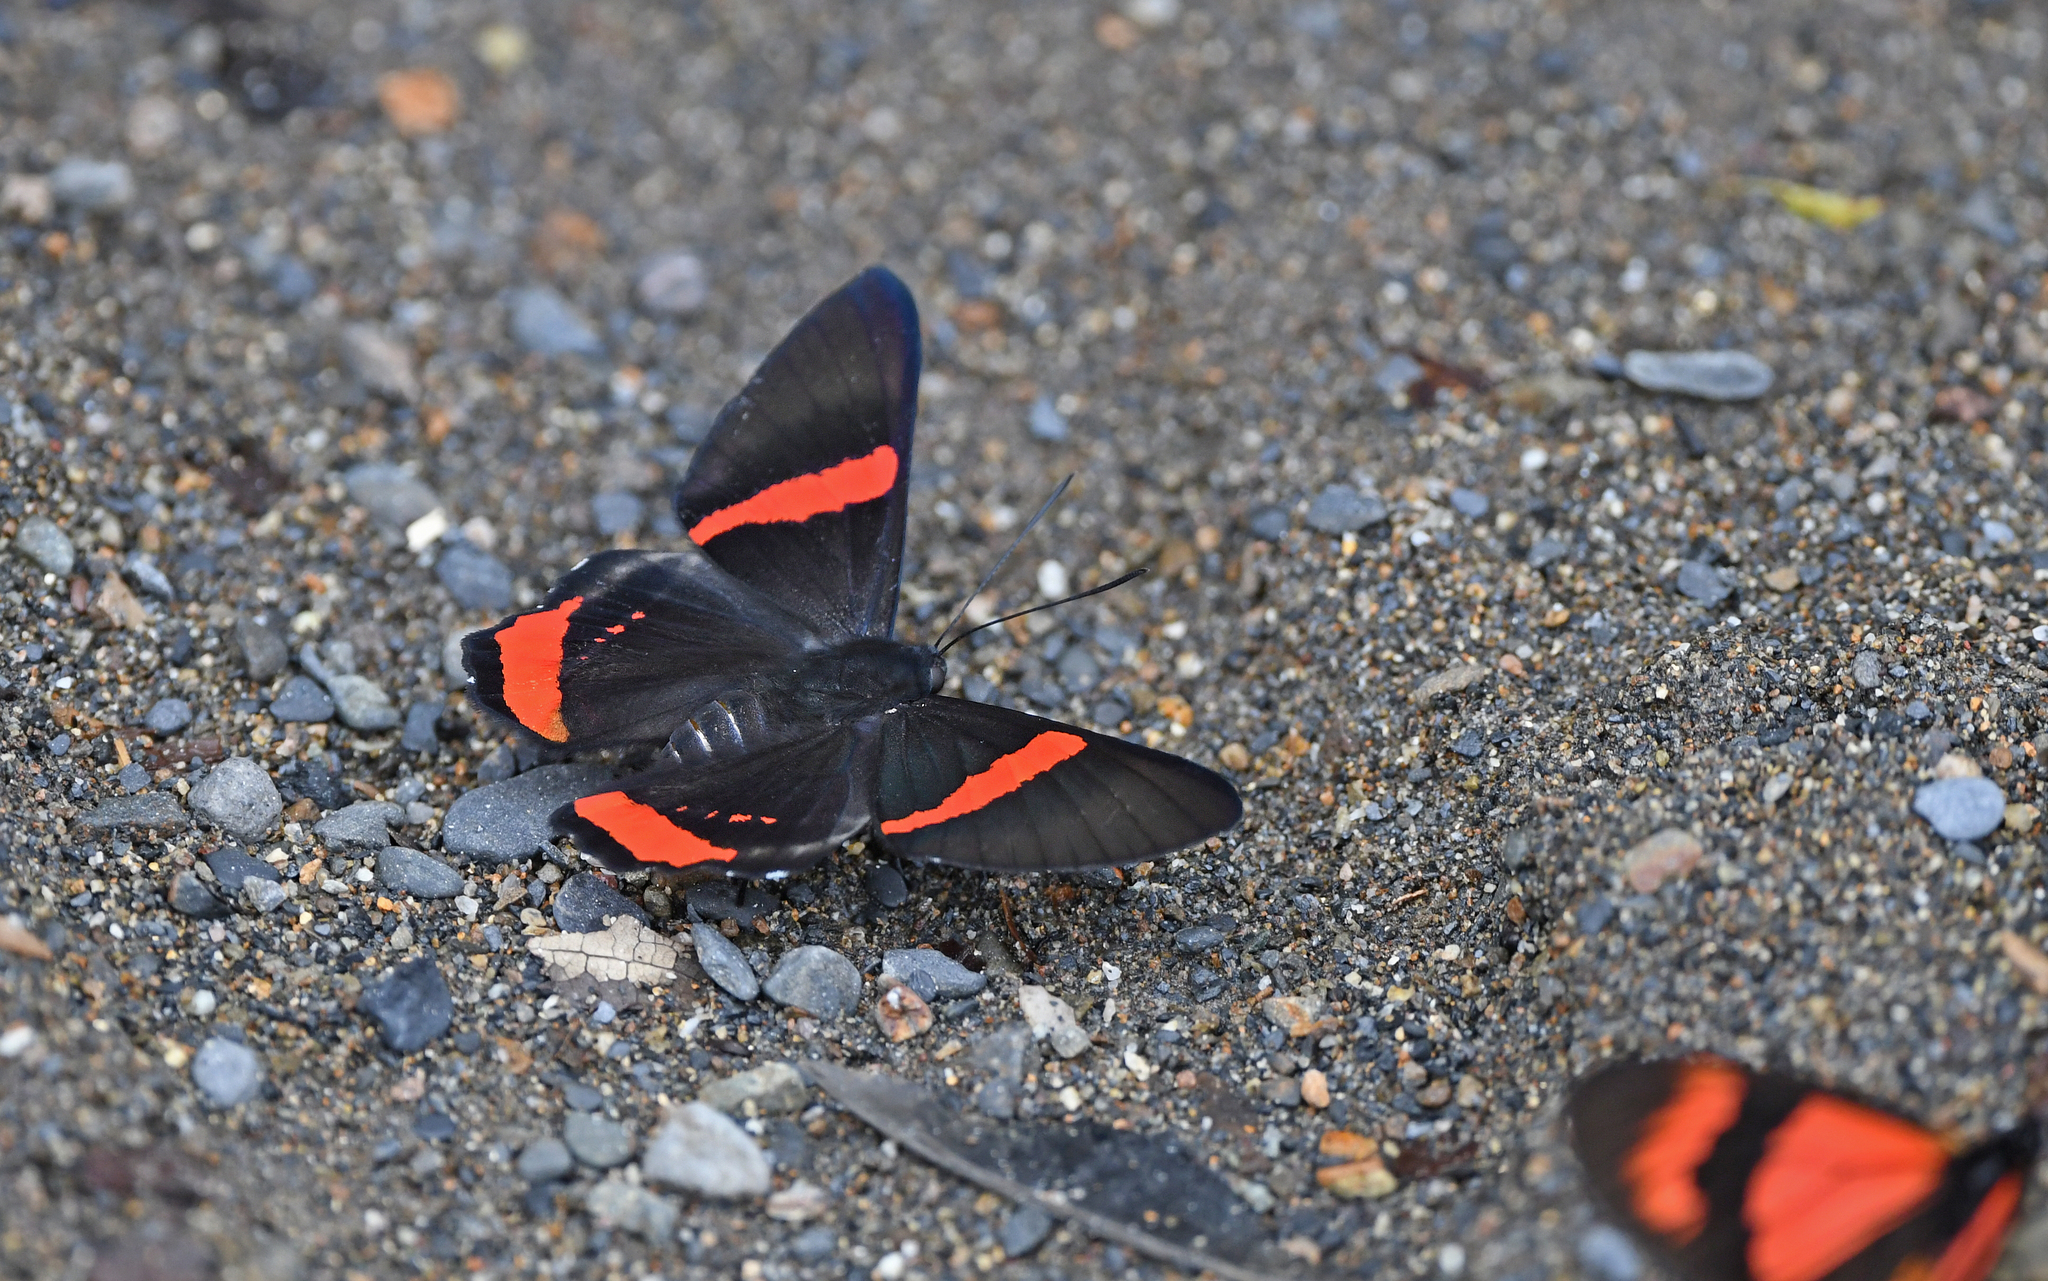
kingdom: Animalia
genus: Ancyluris
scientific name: Ancyluris mira
